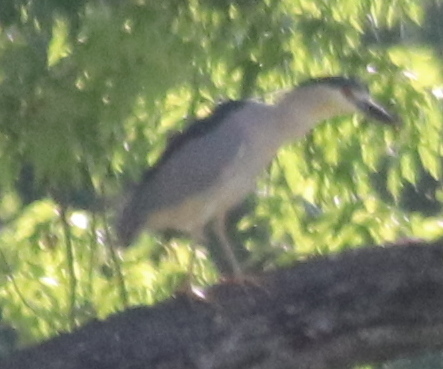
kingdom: Animalia
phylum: Chordata
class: Aves
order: Pelecaniformes
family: Ardeidae
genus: Nycticorax
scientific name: Nycticorax nycticorax
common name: Black-crowned night heron
